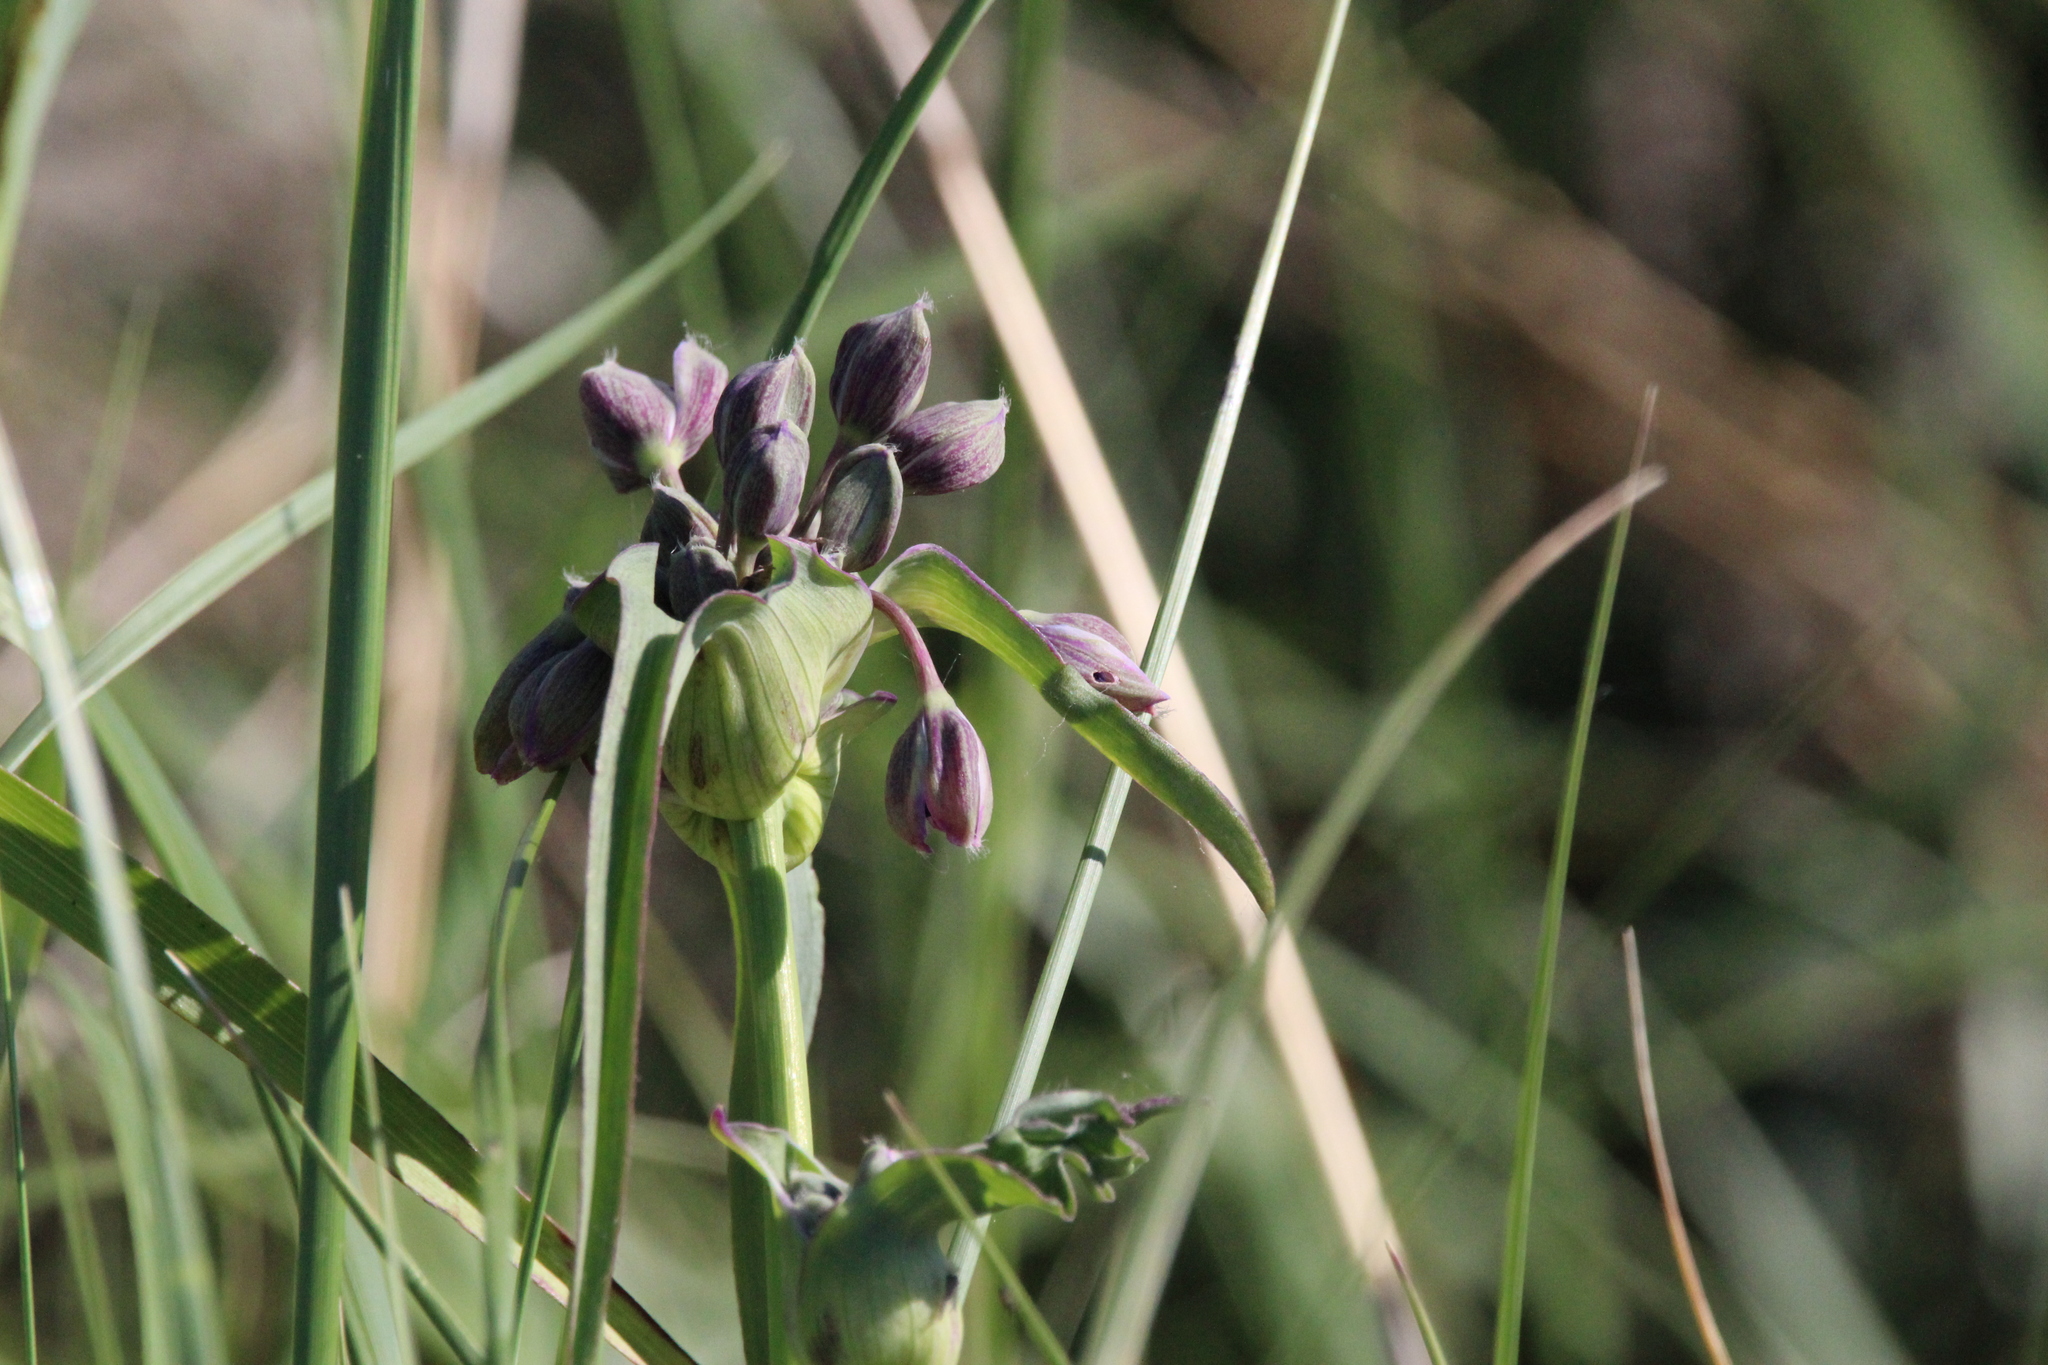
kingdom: Plantae
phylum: Tracheophyta
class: Liliopsida
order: Commelinales
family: Commelinaceae
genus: Tradescantia
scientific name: Tradescantia ohiensis
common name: Ohio spiderwort
